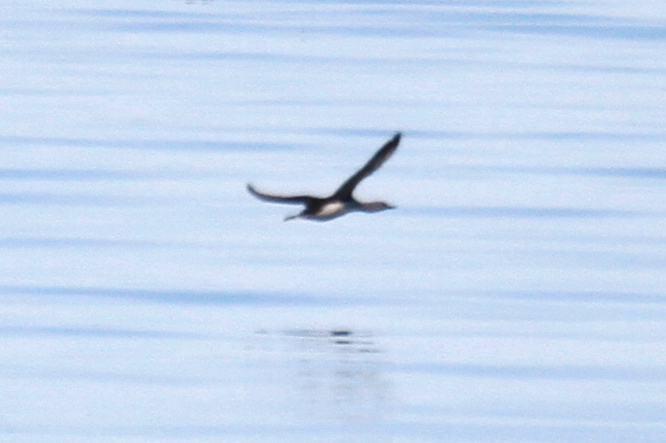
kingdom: Animalia
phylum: Chordata
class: Aves
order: Gaviiformes
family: Gaviidae
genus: Gavia
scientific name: Gavia stellata
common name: Red-throated loon
